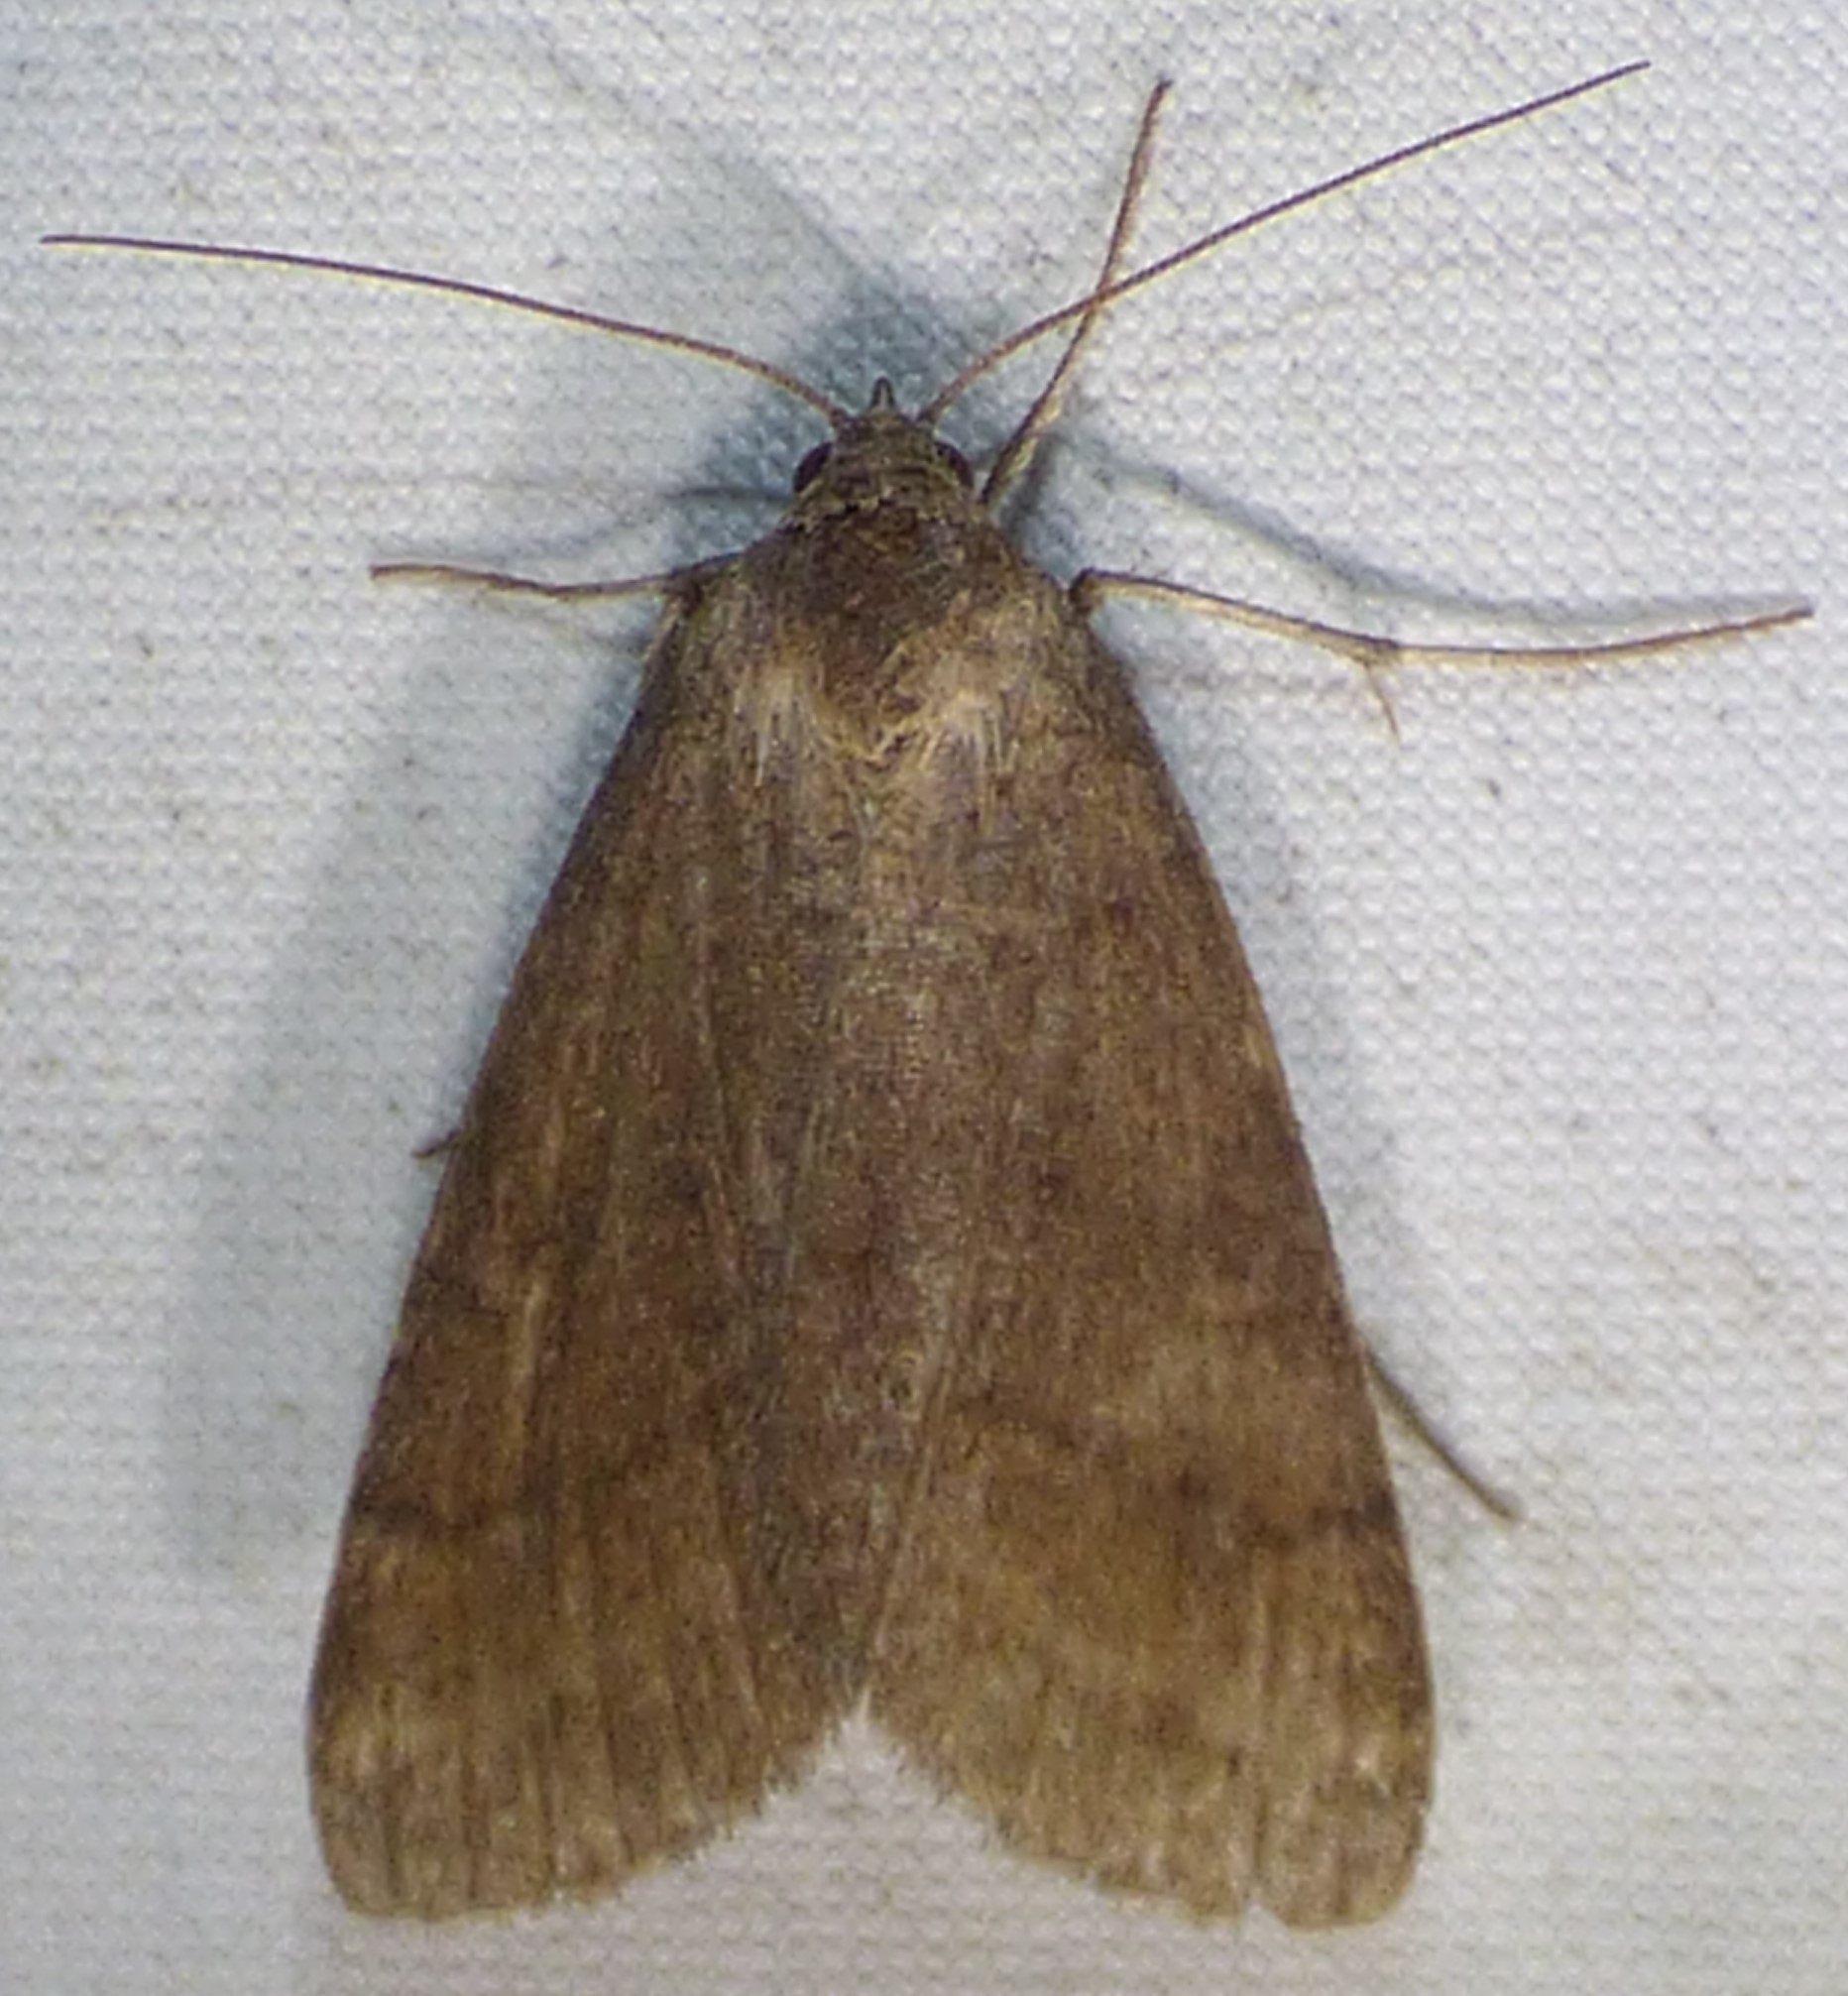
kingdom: Animalia
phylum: Arthropoda
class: Insecta
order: Lepidoptera
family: Erebidae
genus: Caenurgia
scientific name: Caenurgia chloropha
